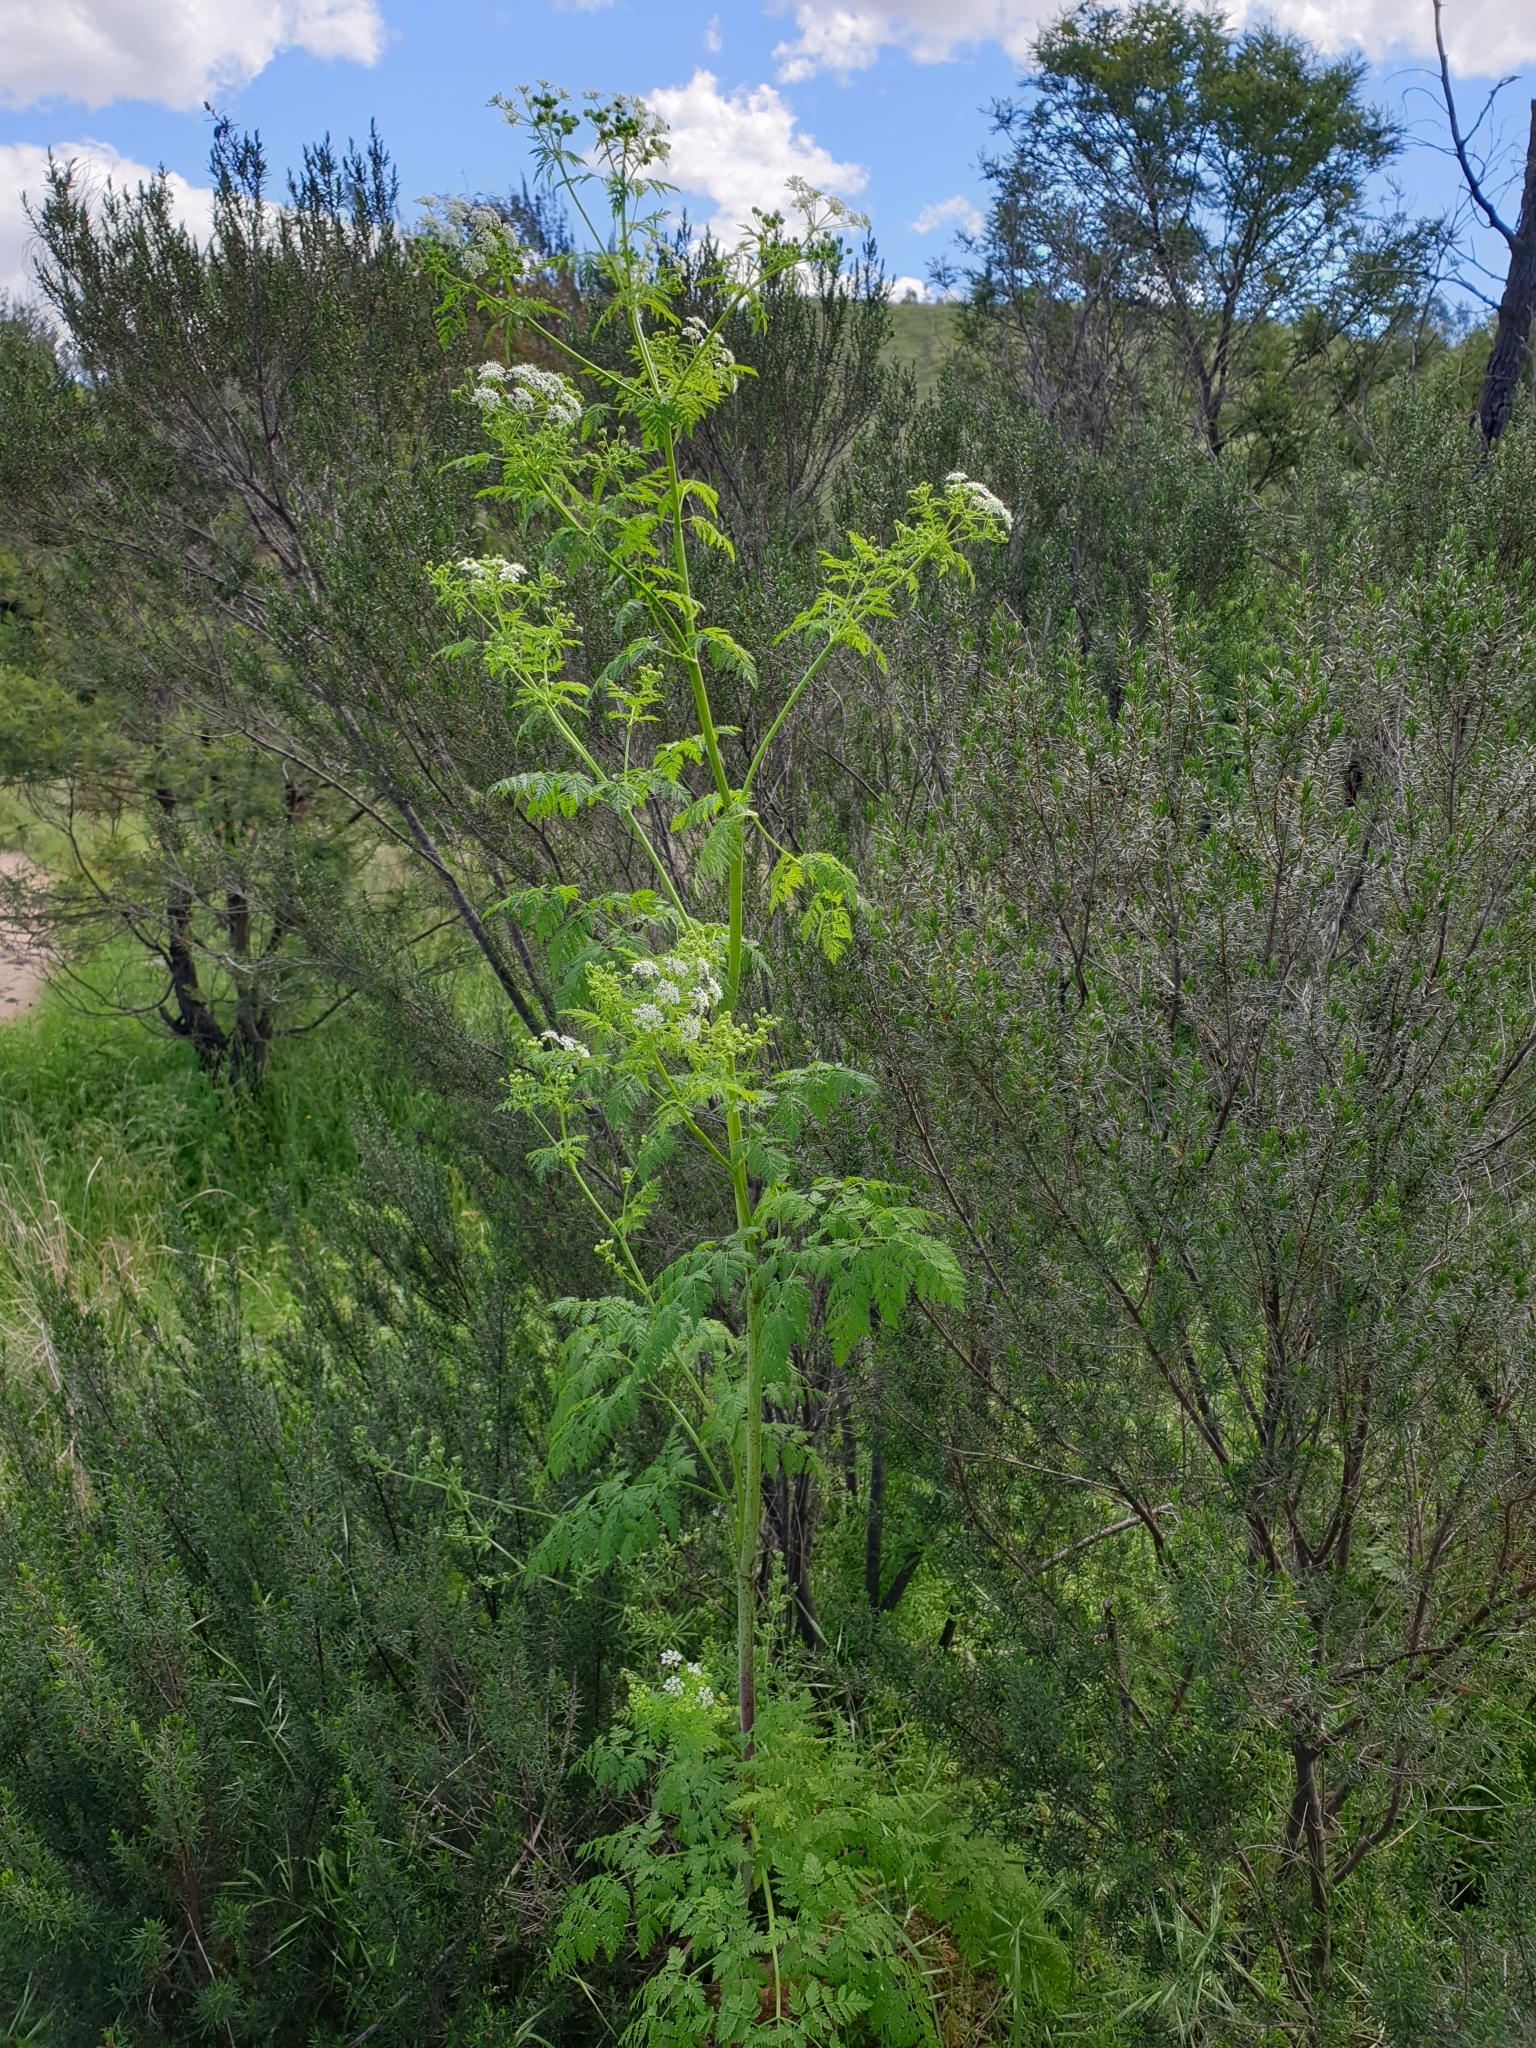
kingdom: Plantae
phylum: Tracheophyta
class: Magnoliopsida
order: Apiales
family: Apiaceae
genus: Conium
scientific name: Conium maculatum
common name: Hemlock
